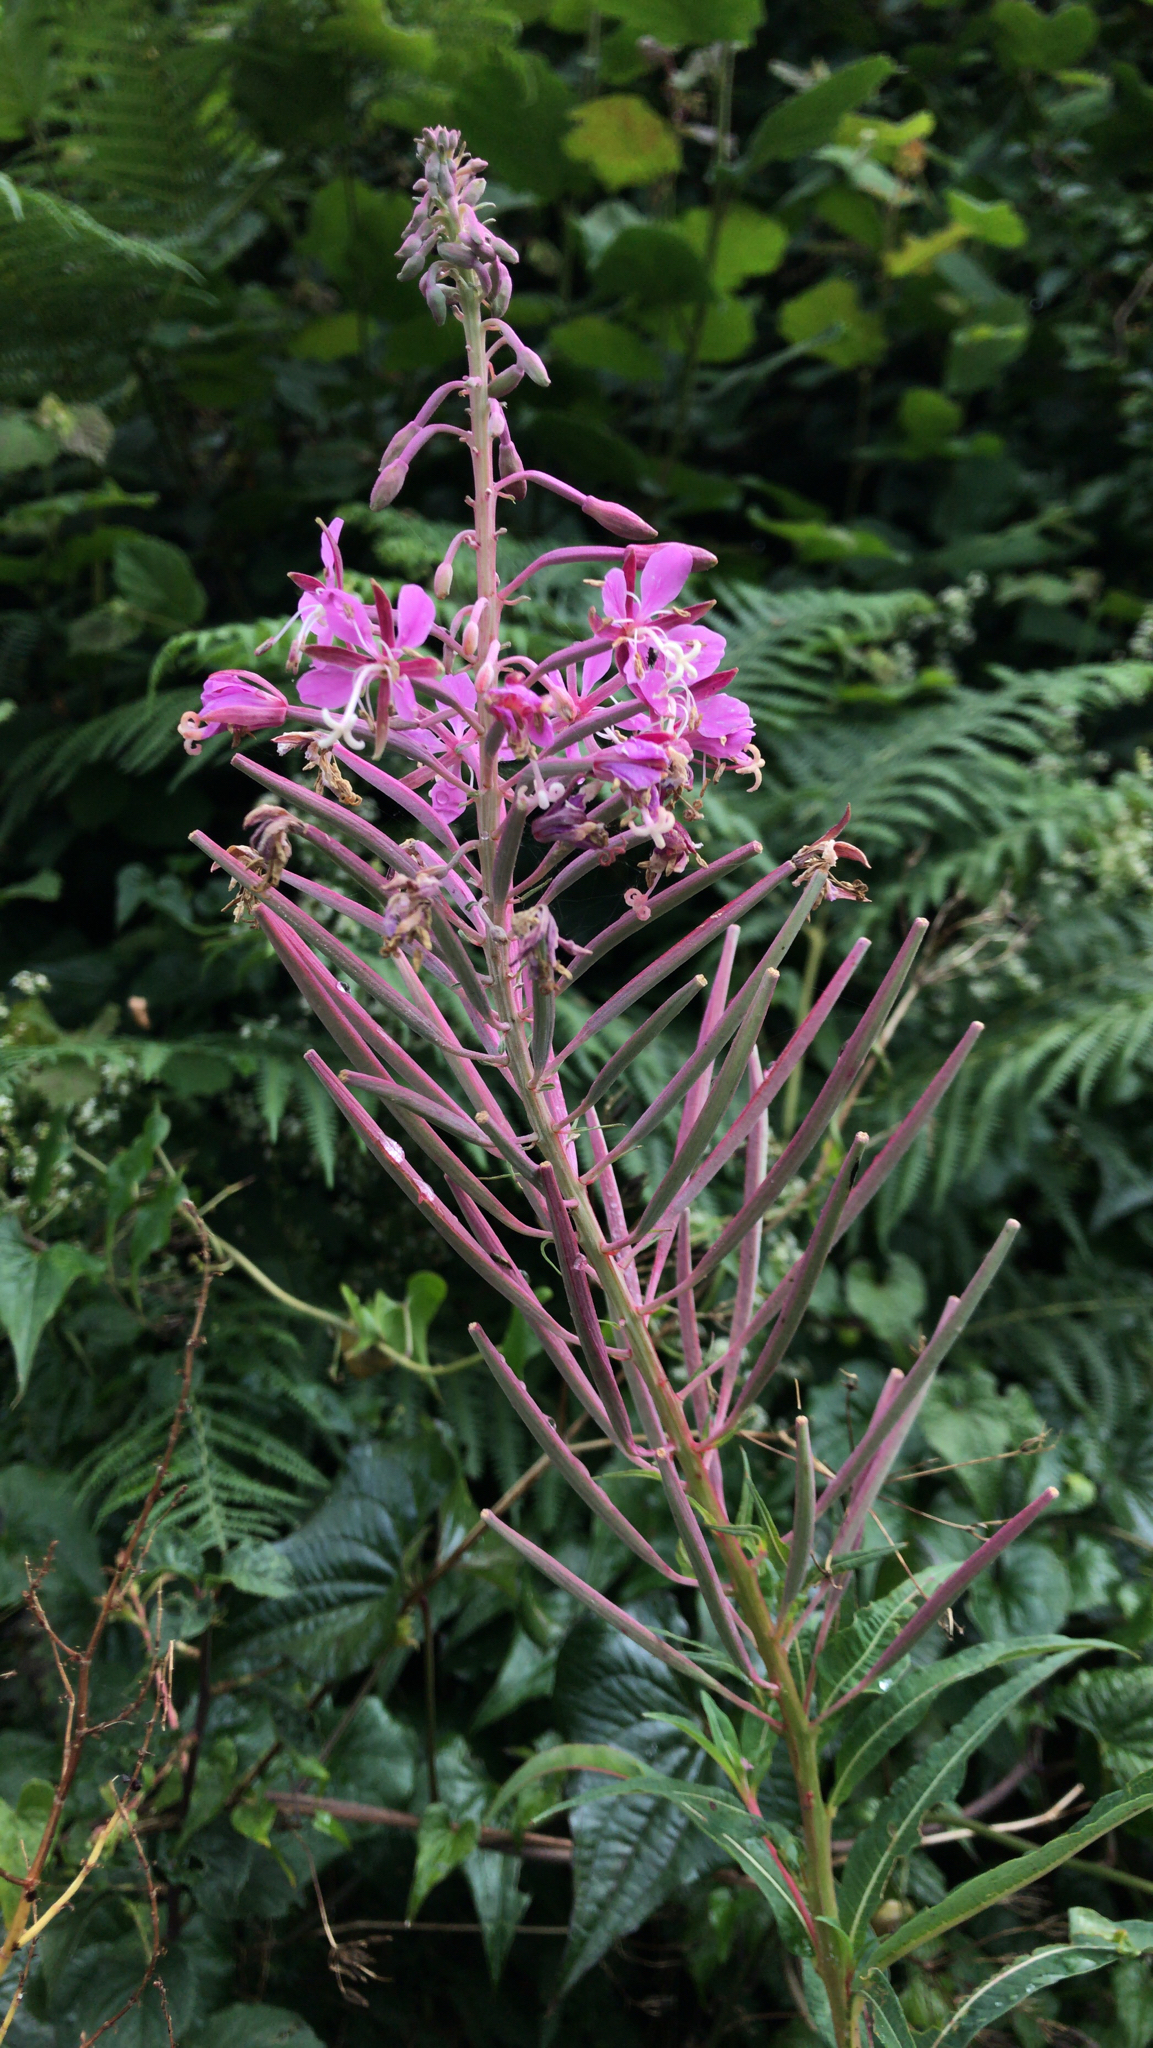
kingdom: Plantae
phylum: Tracheophyta
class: Magnoliopsida
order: Myrtales
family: Onagraceae
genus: Chamaenerion
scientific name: Chamaenerion angustifolium
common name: Fireweed
